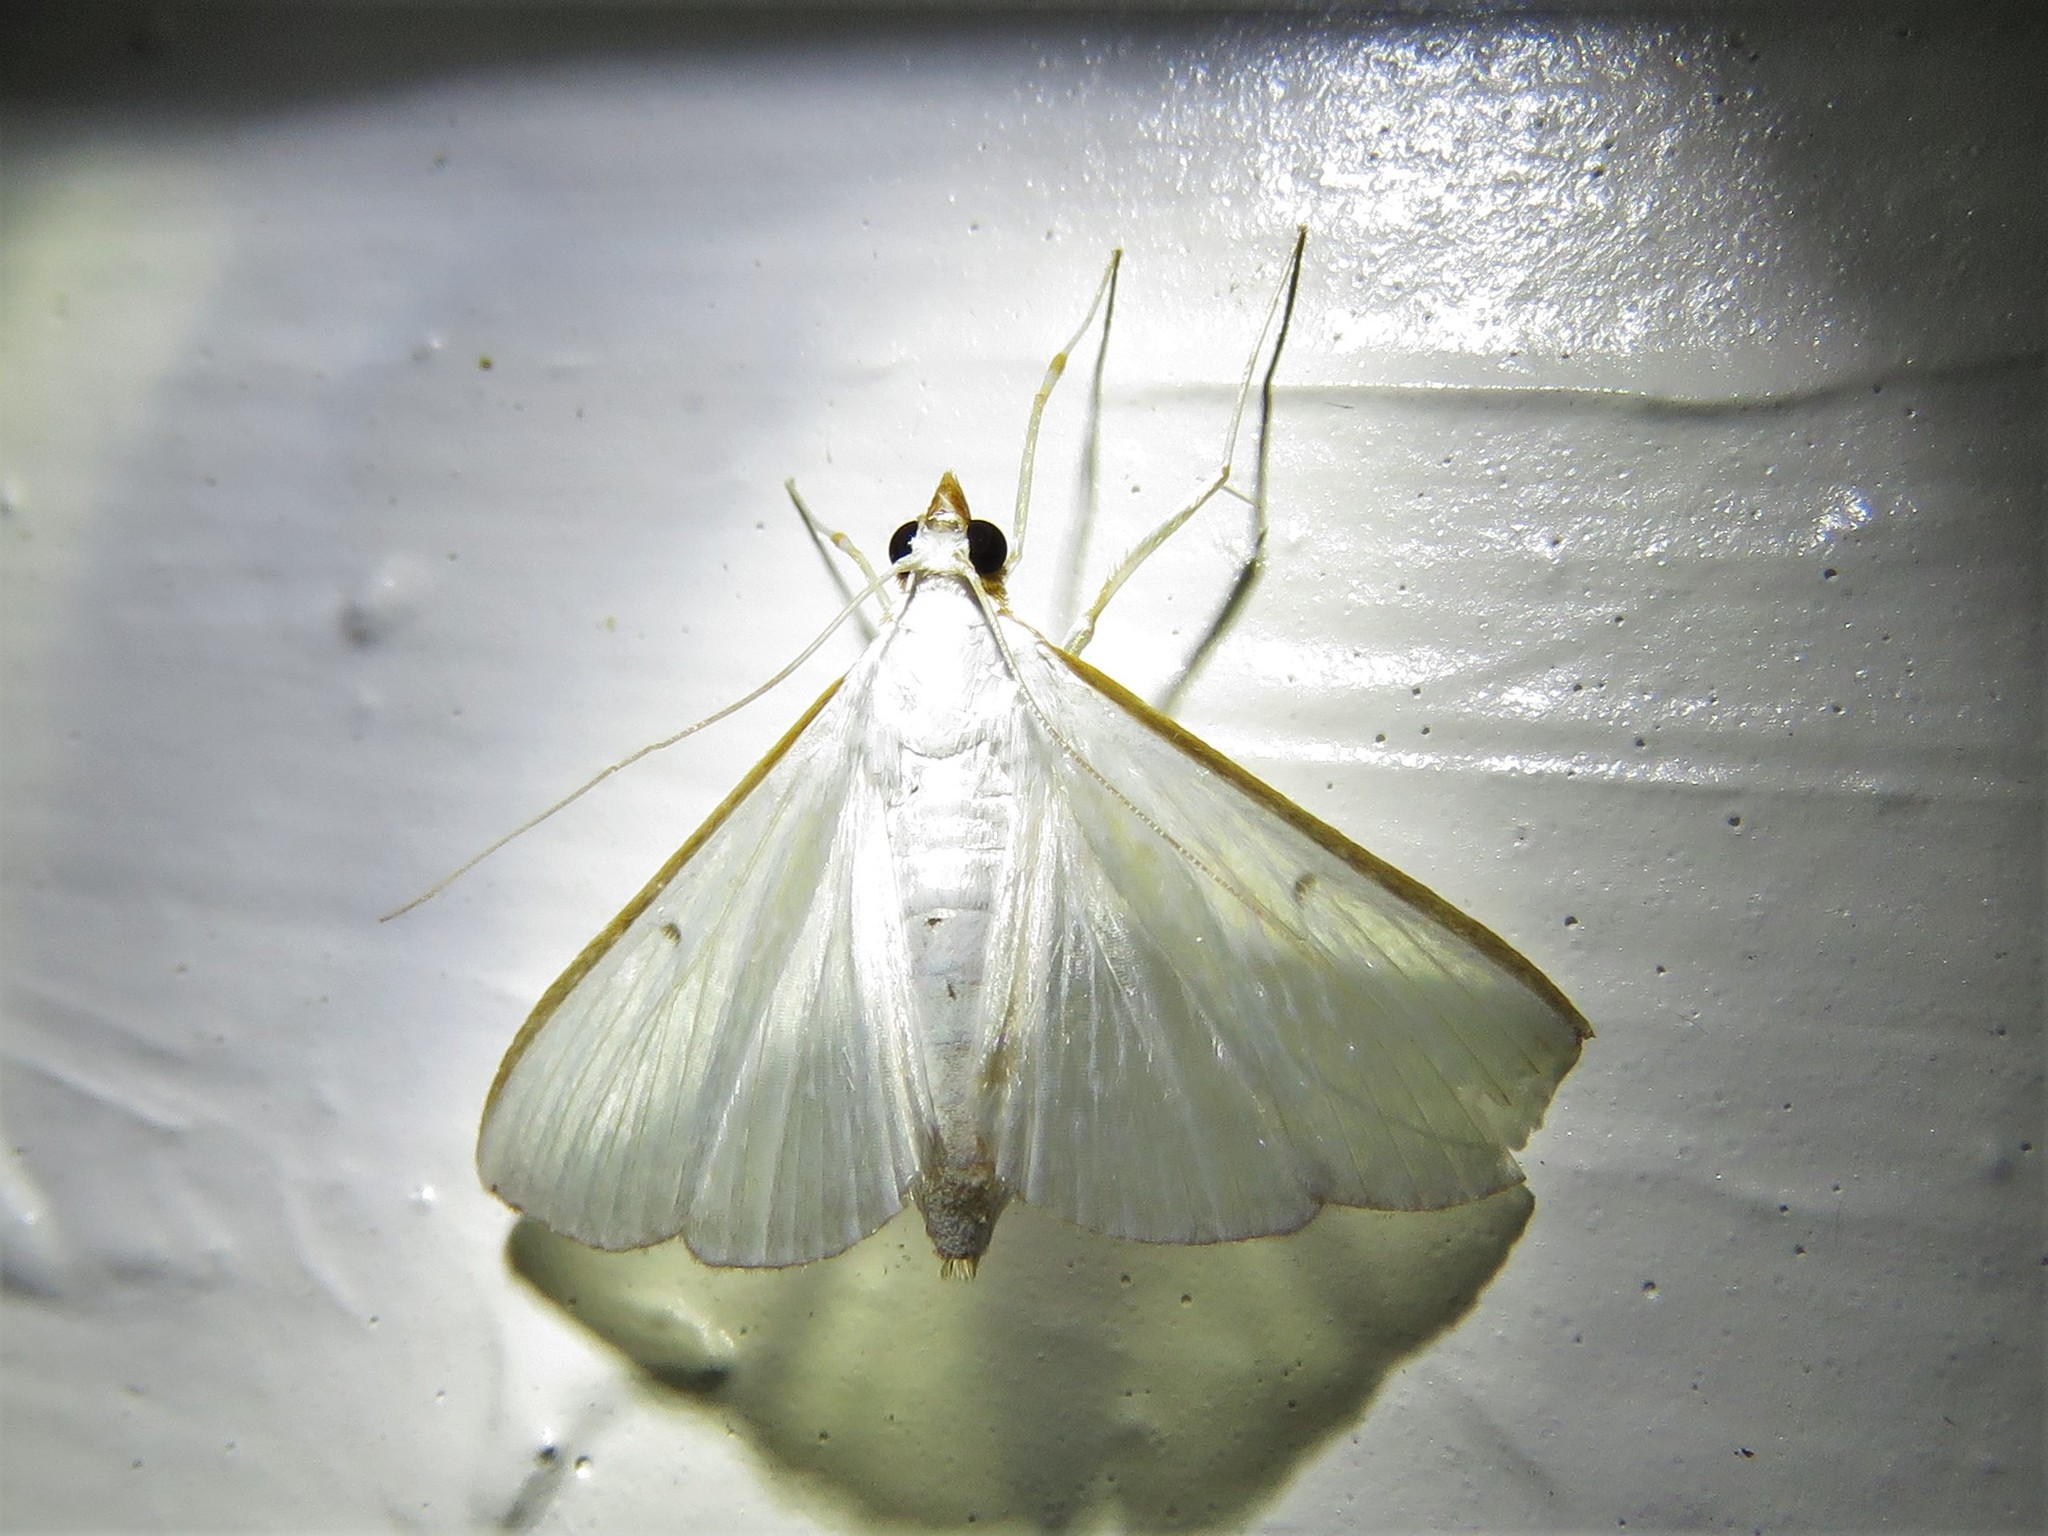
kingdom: Animalia
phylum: Arthropoda
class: Insecta
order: Lepidoptera
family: Crambidae
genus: Diaphania
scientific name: Diaphania costata
